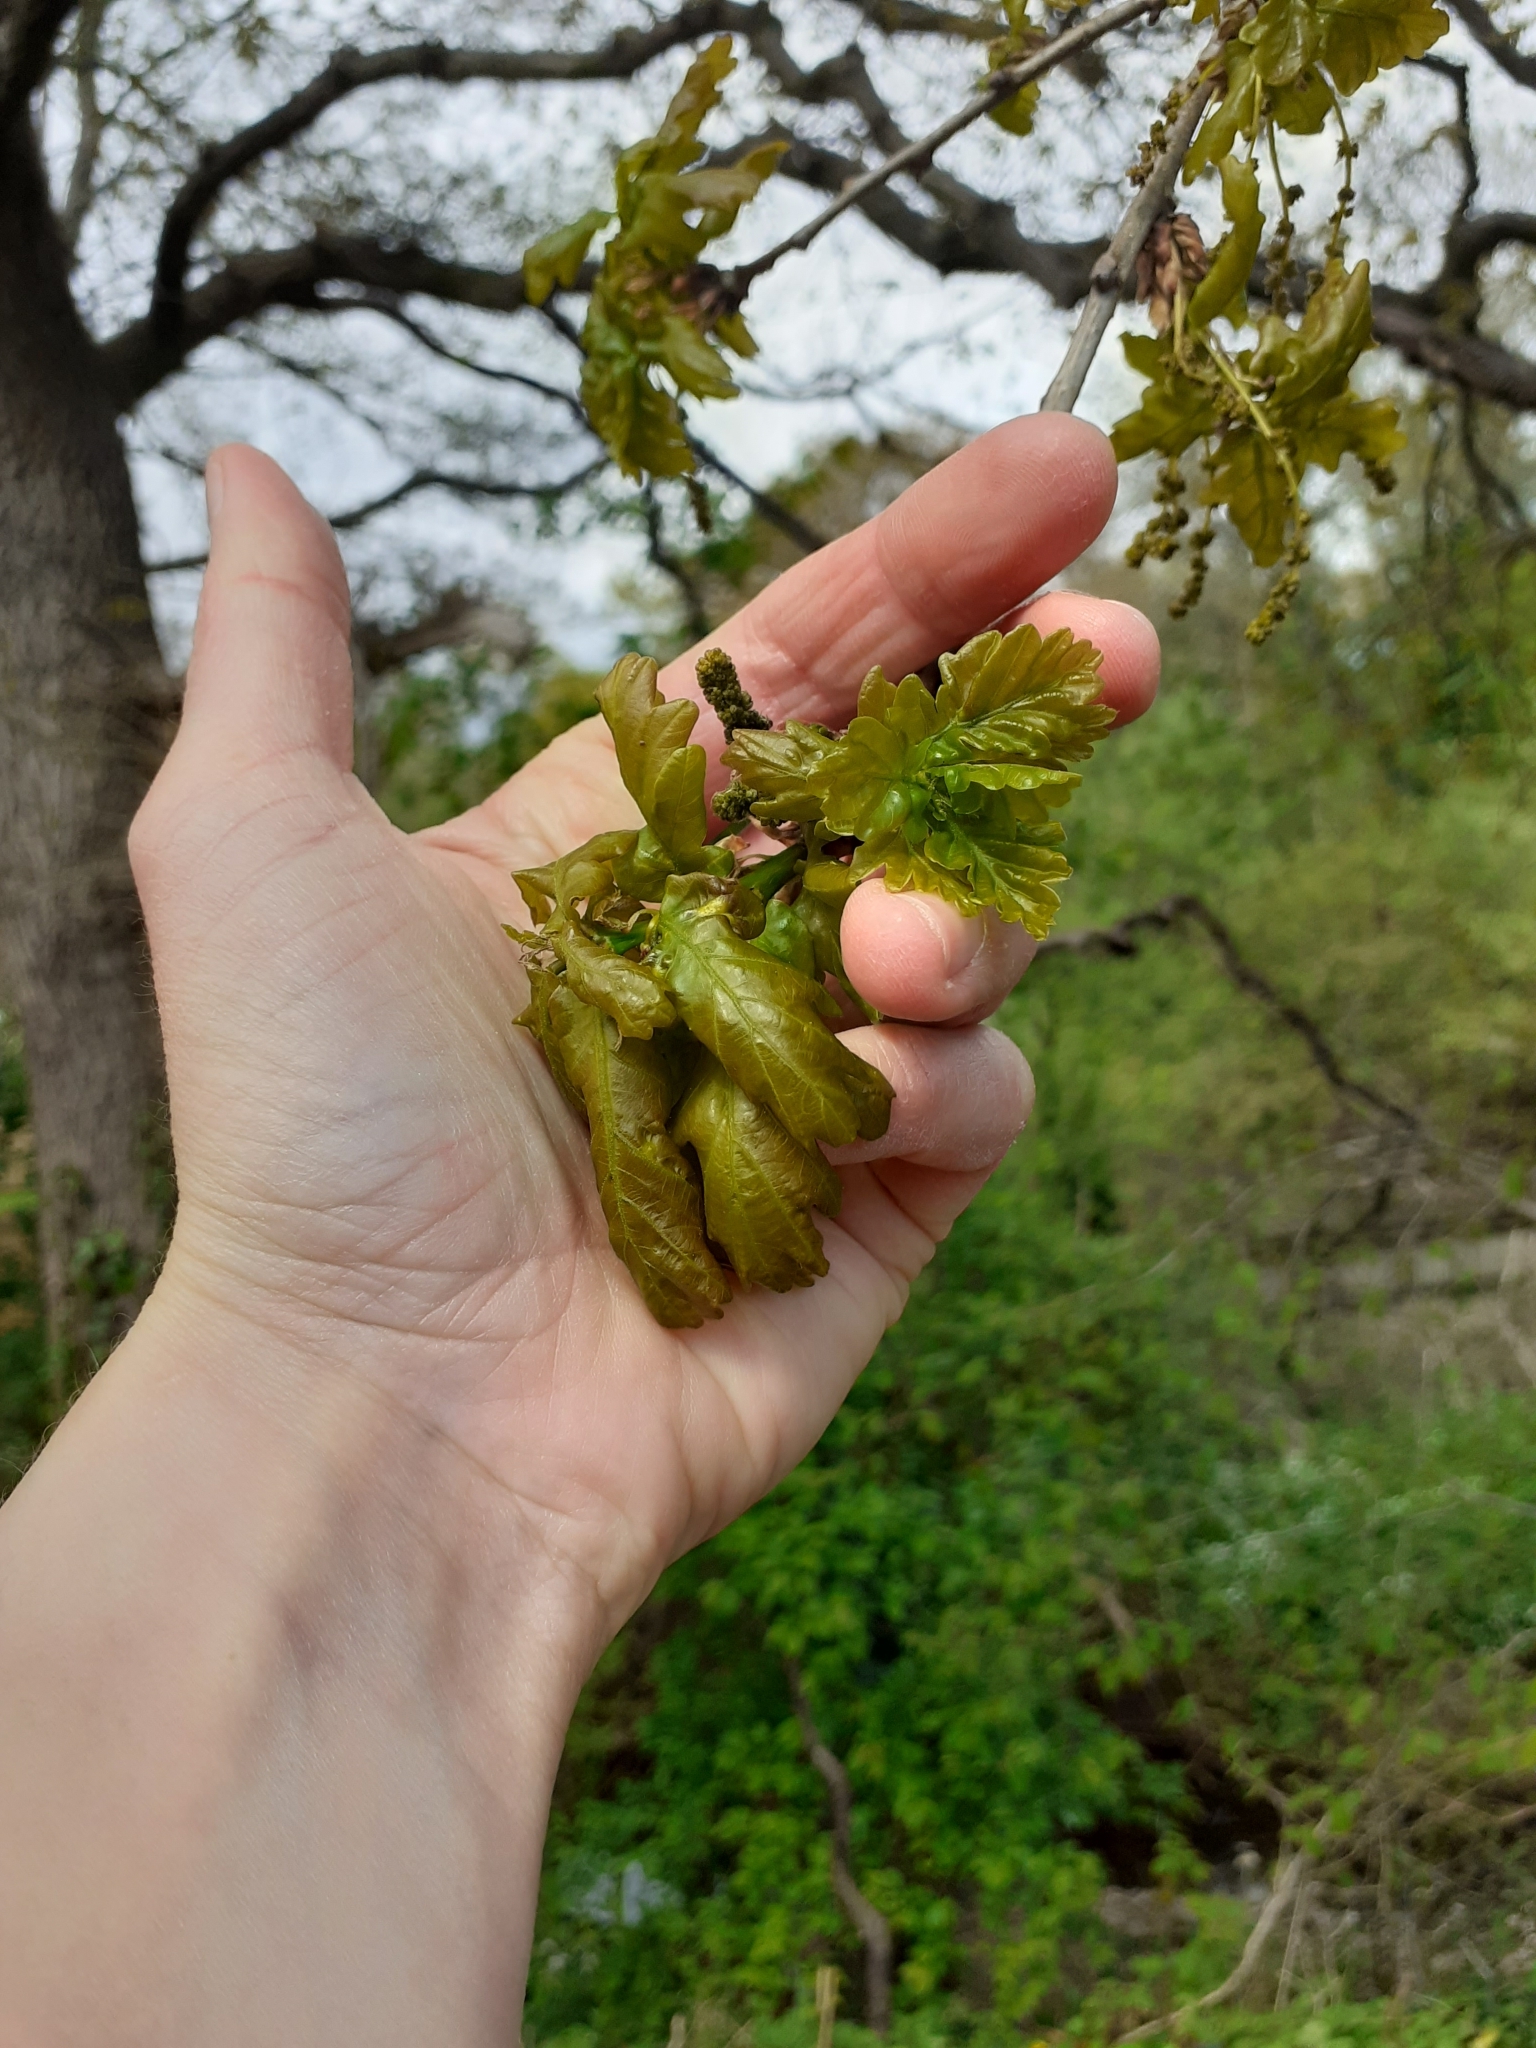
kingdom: Plantae
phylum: Tracheophyta
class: Magnoliopsida
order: Fagales
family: Fagaceae
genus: Quercus
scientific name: Quercus robur
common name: Pedunculate oak
